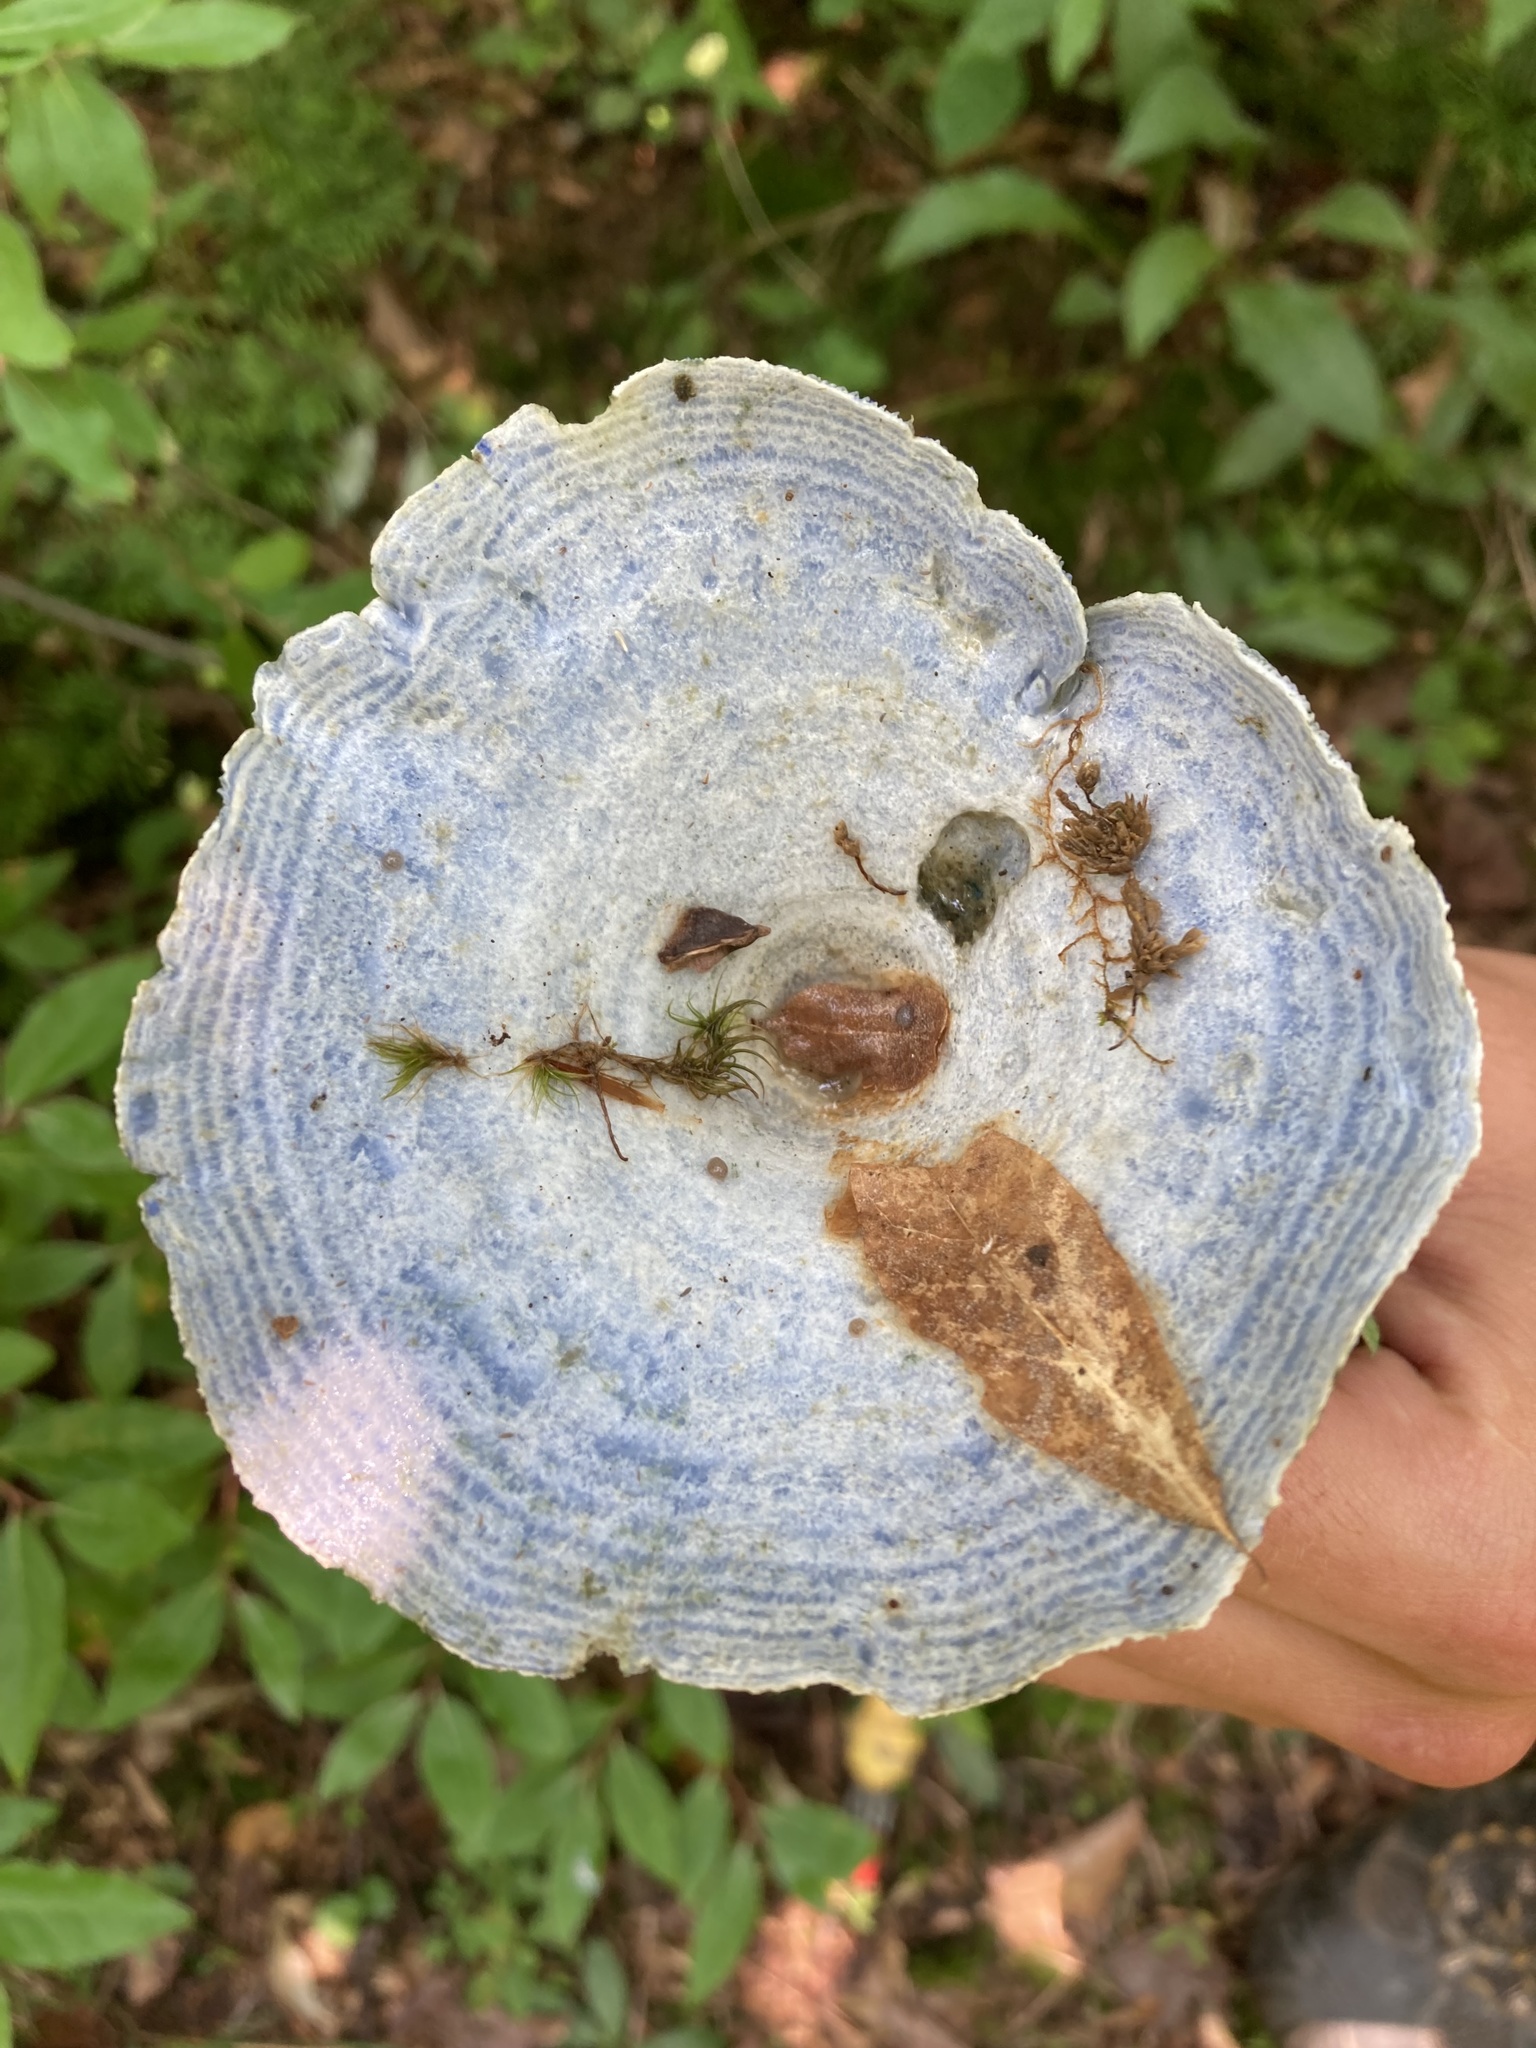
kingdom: Fungi
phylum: Basidiomycota
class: Agaricomycetes
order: Russulales
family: Russulaceae
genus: Lactarius
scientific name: Lactarius indigo
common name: Indigo milk cap
